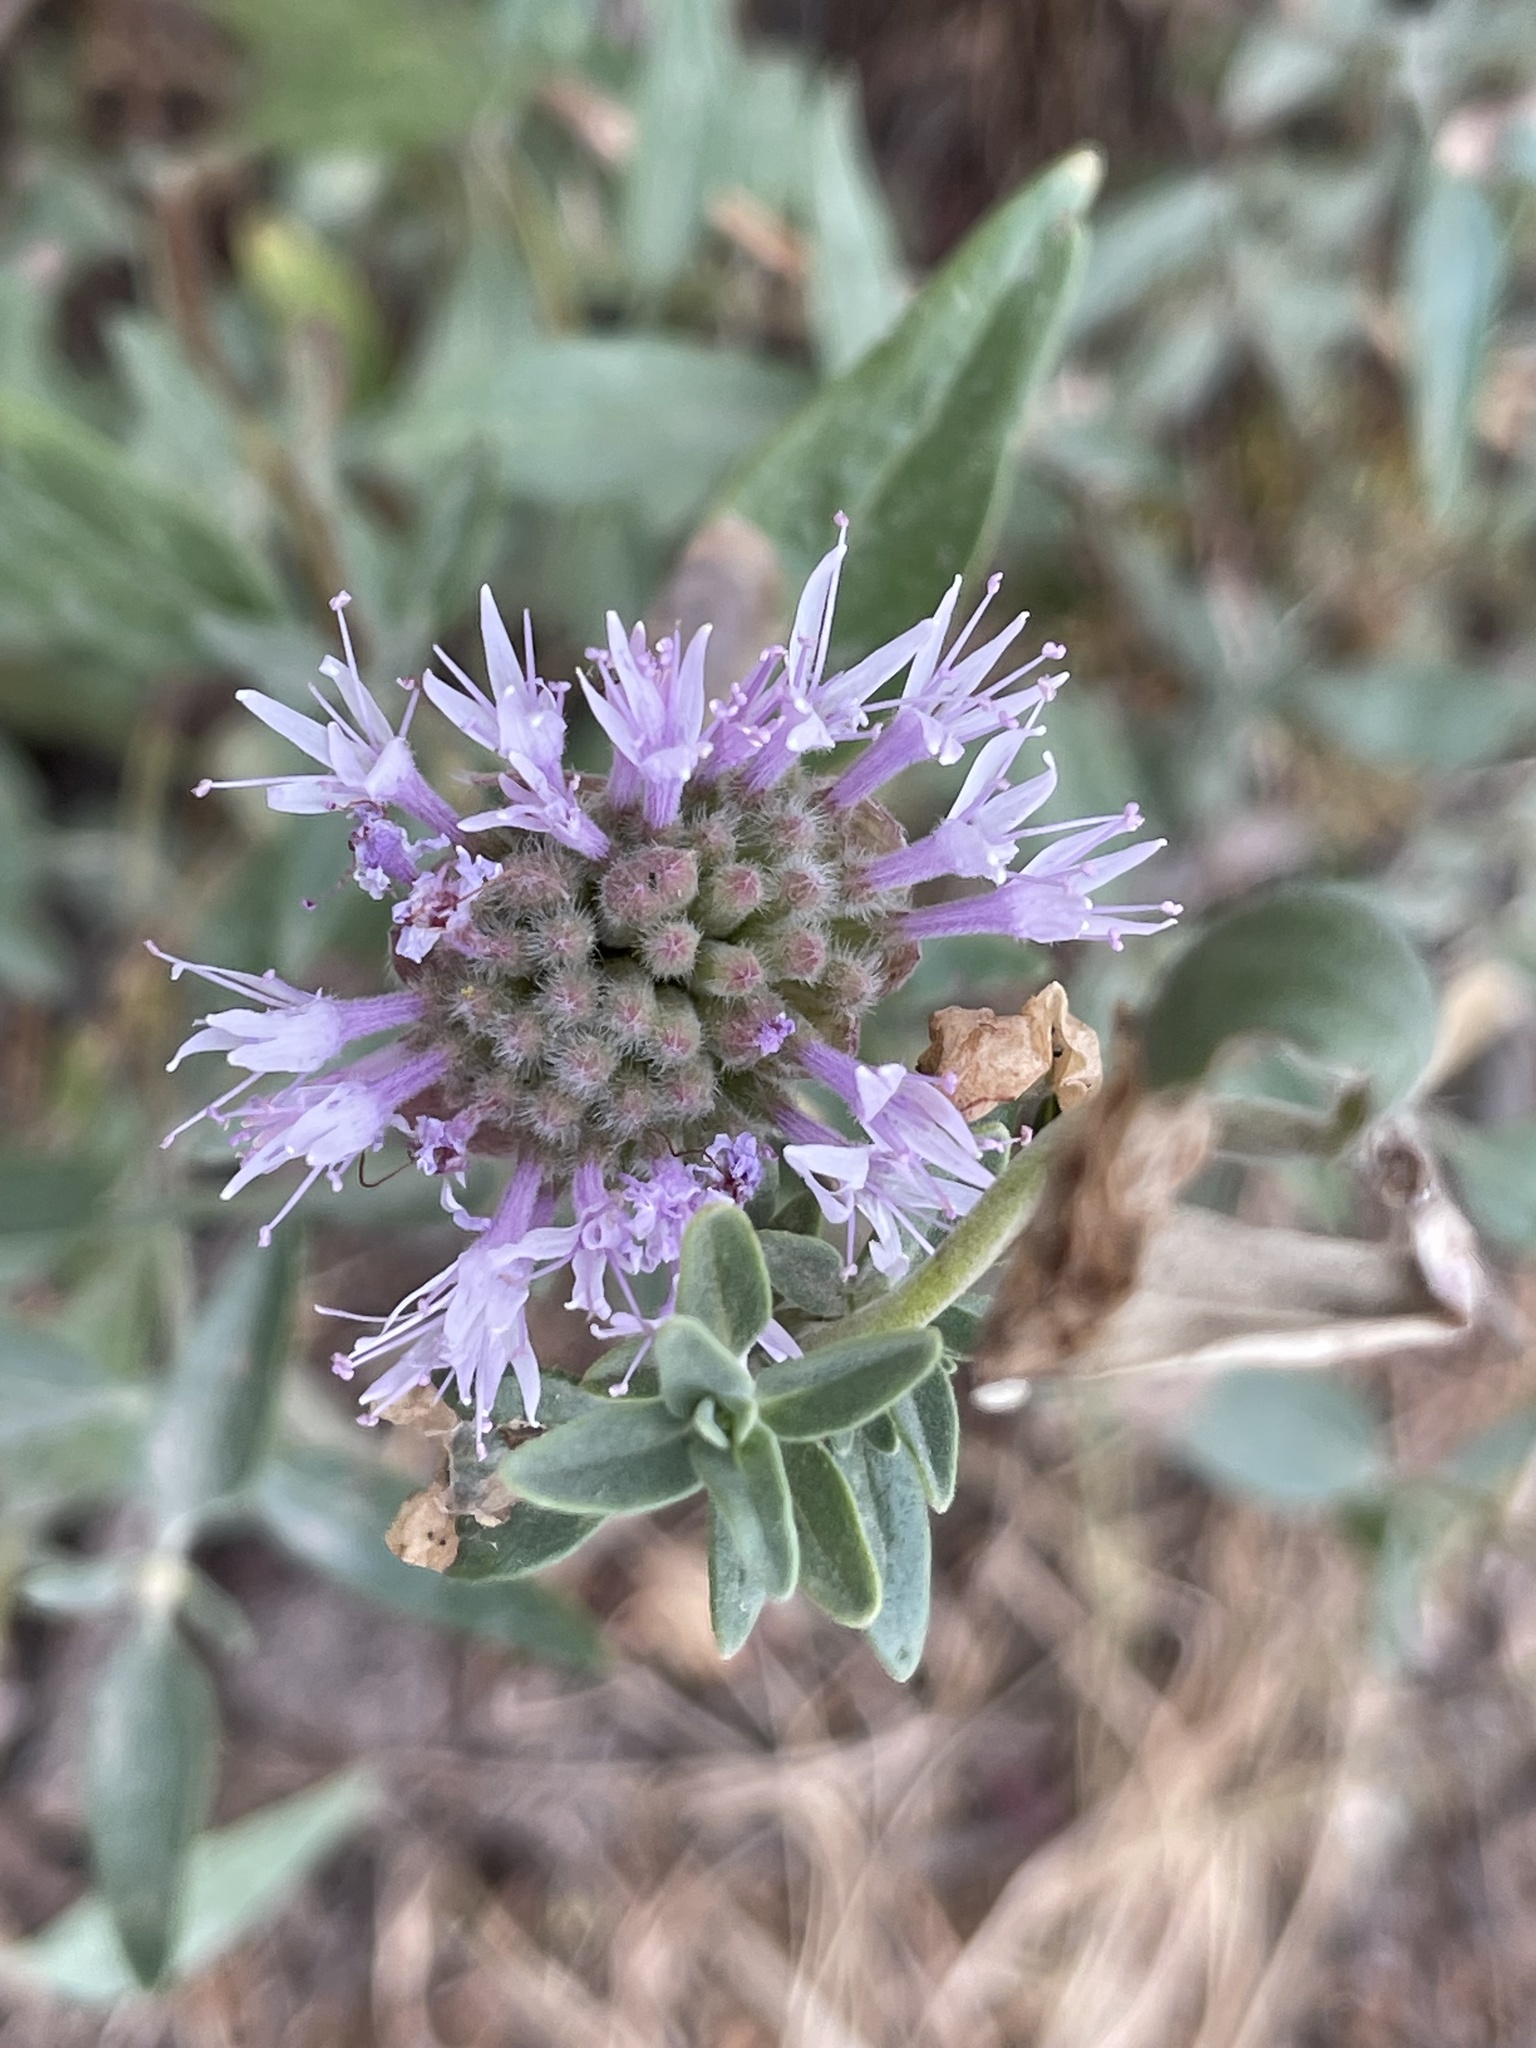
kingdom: Plantae
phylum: Tracheophyta
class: Magnoliopsida
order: Lamiales
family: Lamiaceae
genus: Monardella
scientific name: Monardella odoratissima
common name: Pacific monardella
